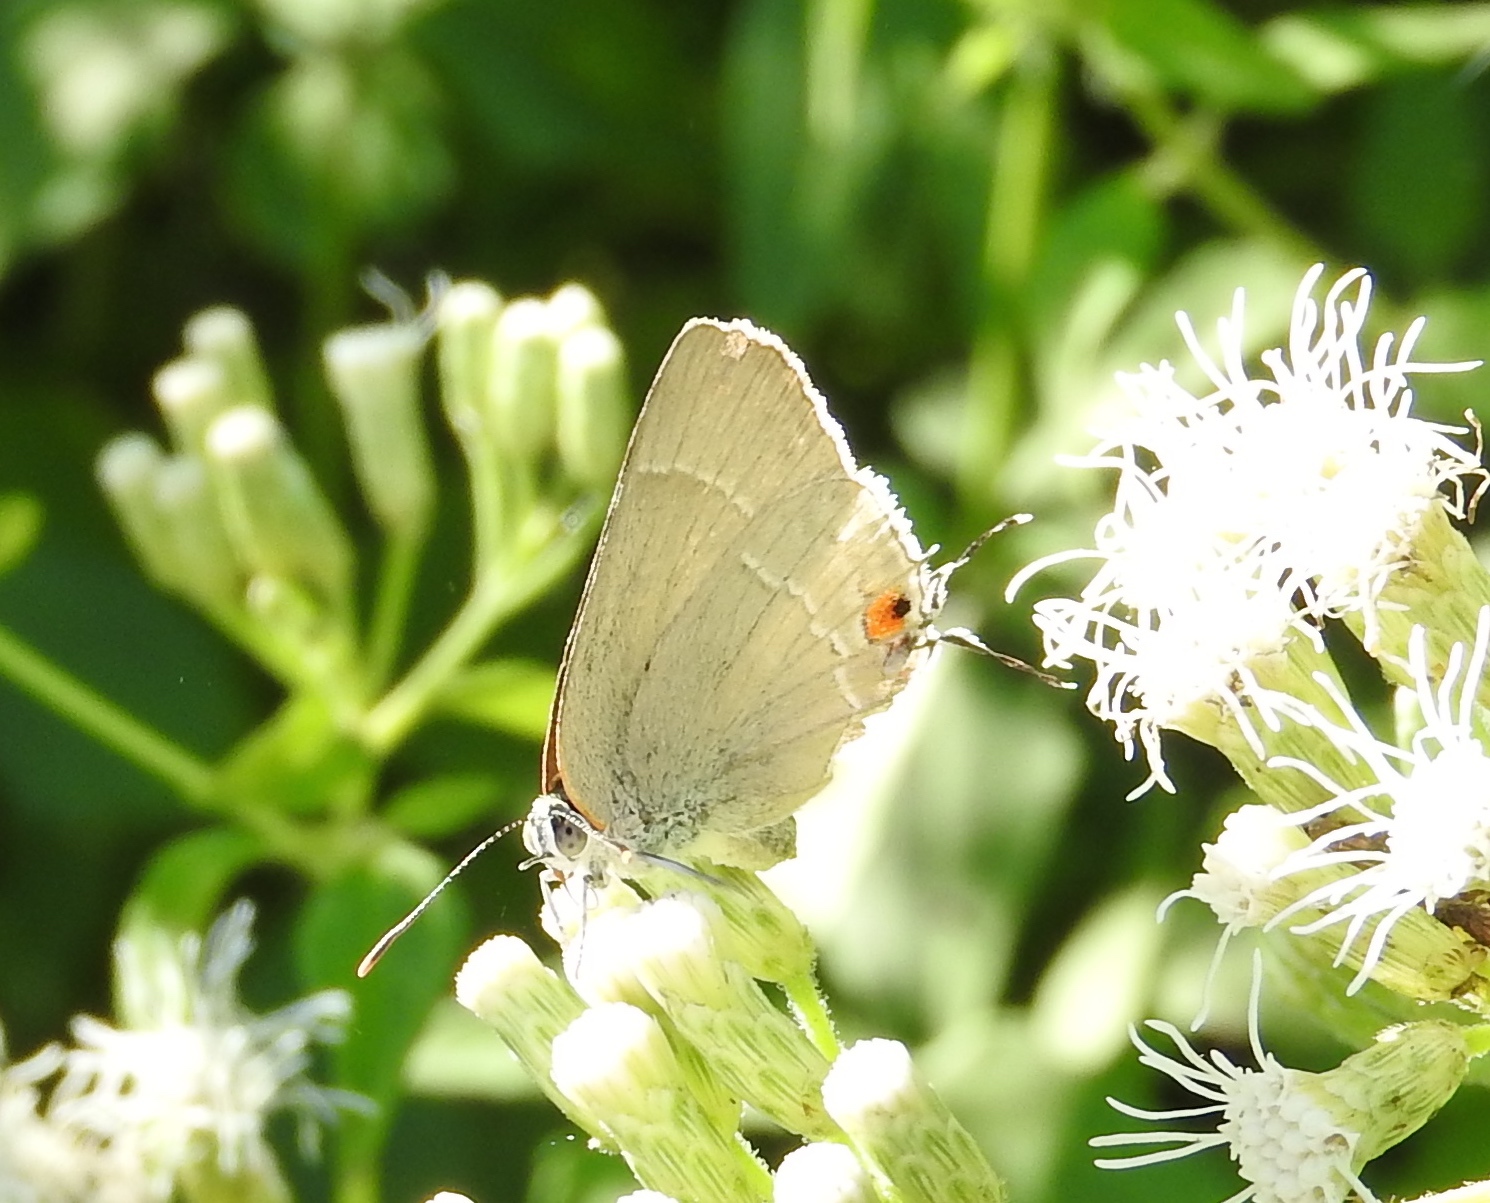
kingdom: Animalia
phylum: Arthropoda
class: Insecta
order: Lepidoptera
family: Lycaenidae
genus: Thecla
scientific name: Thecla marius
